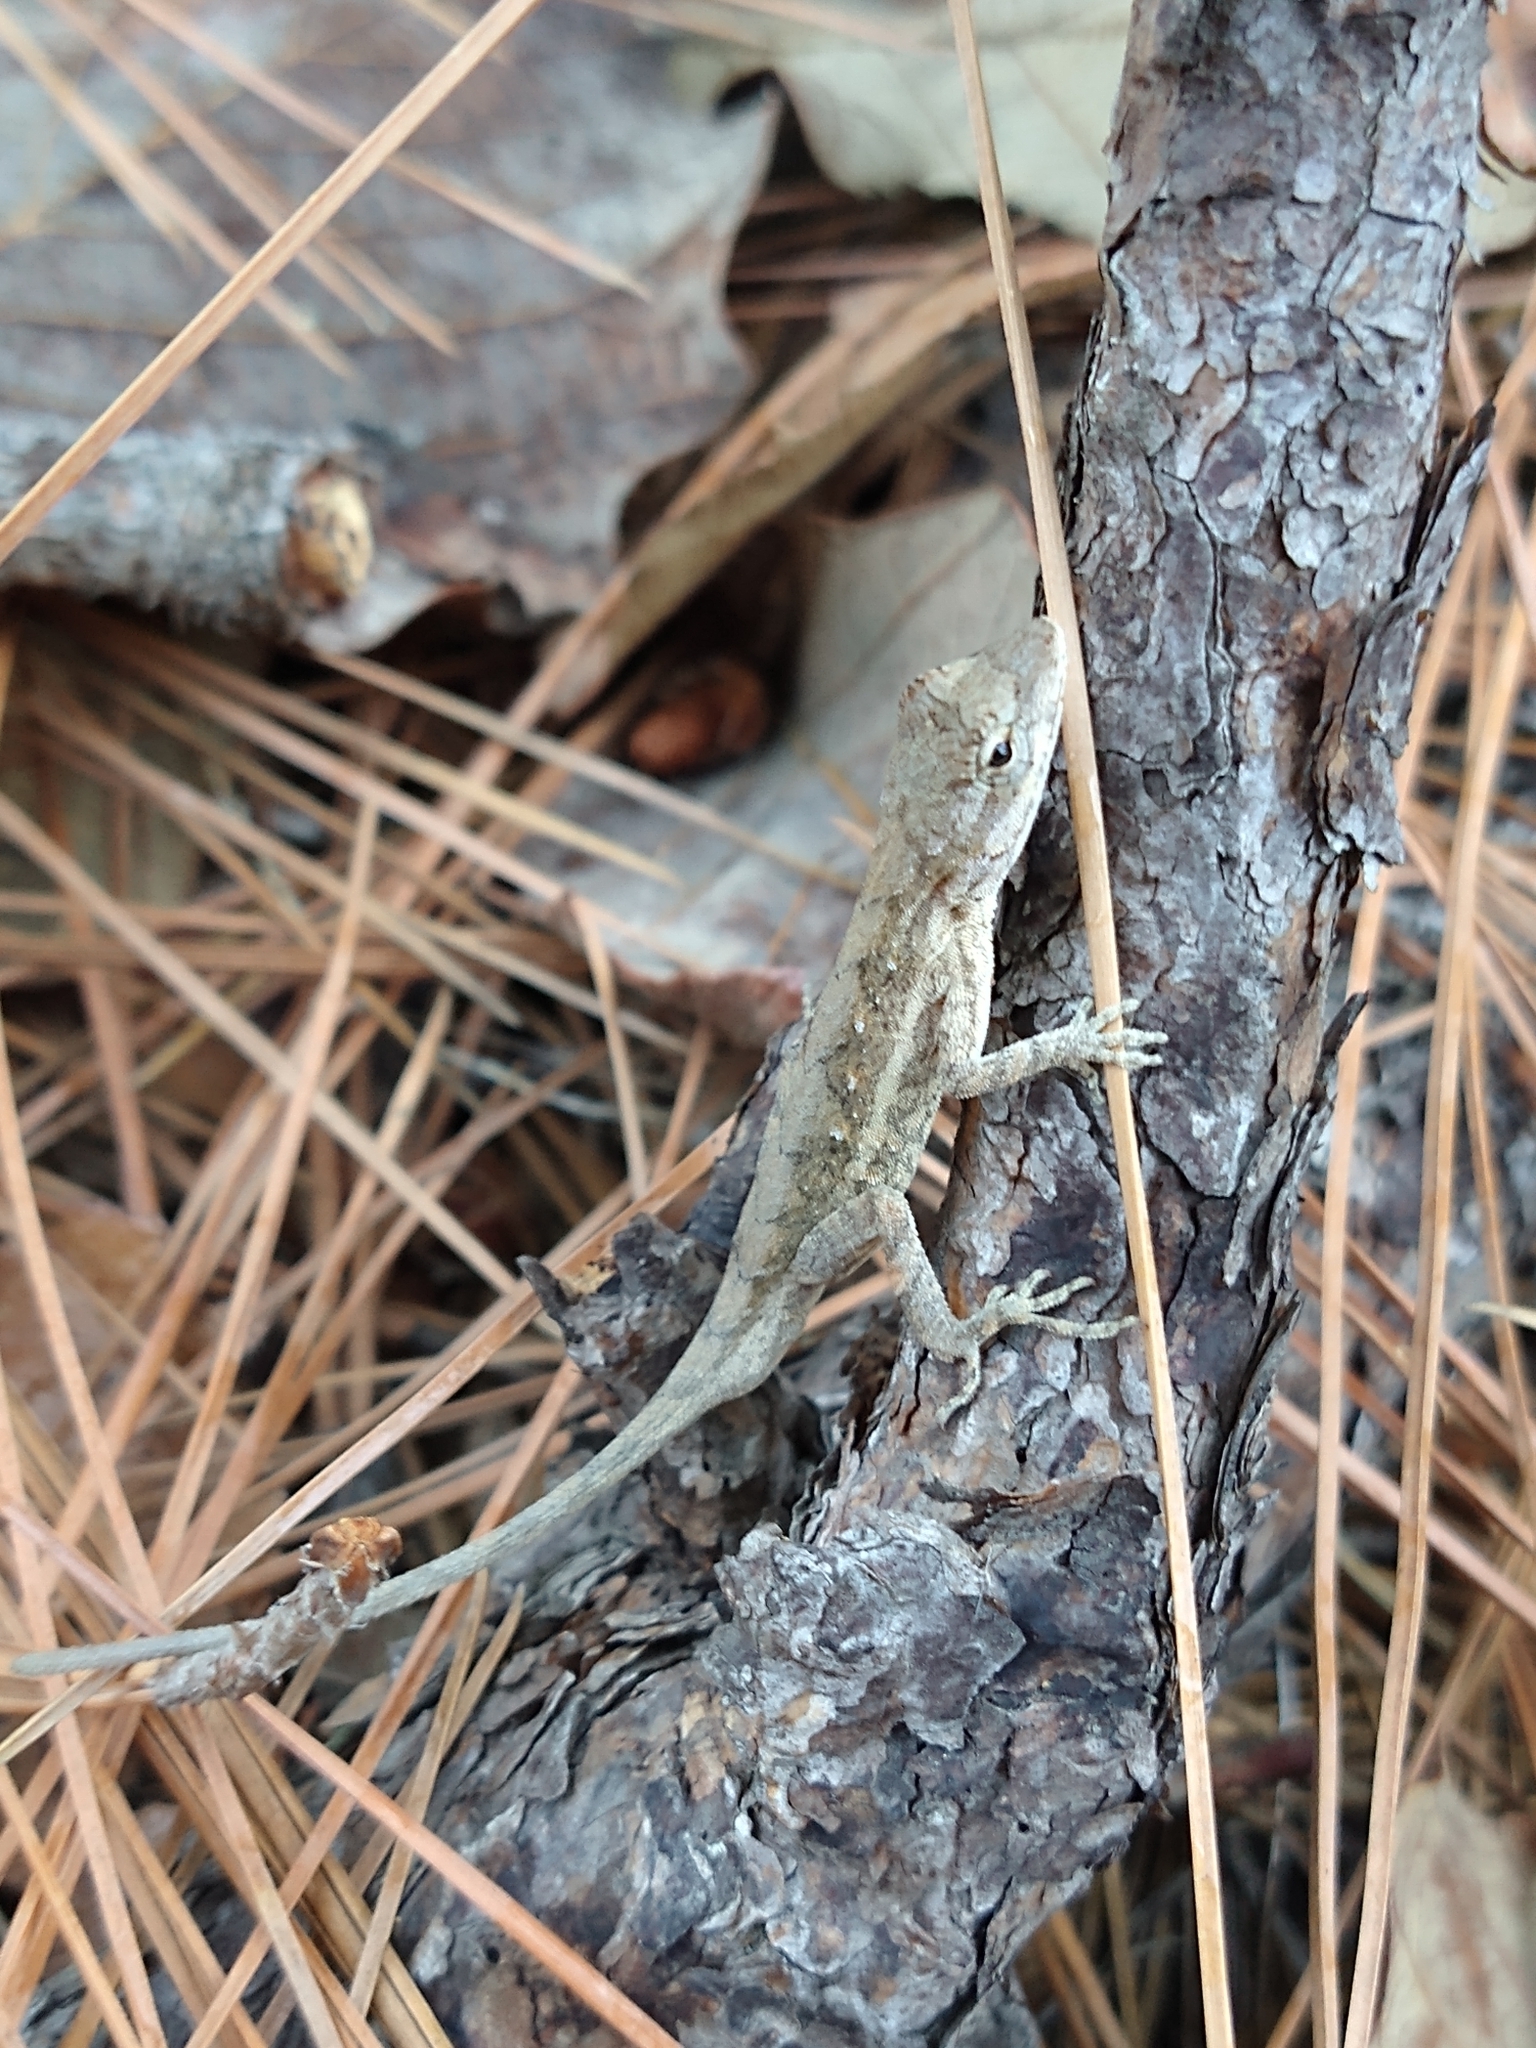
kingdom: Animalia
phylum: Chordata
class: Squamata
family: Dactyloidae
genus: Anolis
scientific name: Anolis nebulosus
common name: Clouded anole
